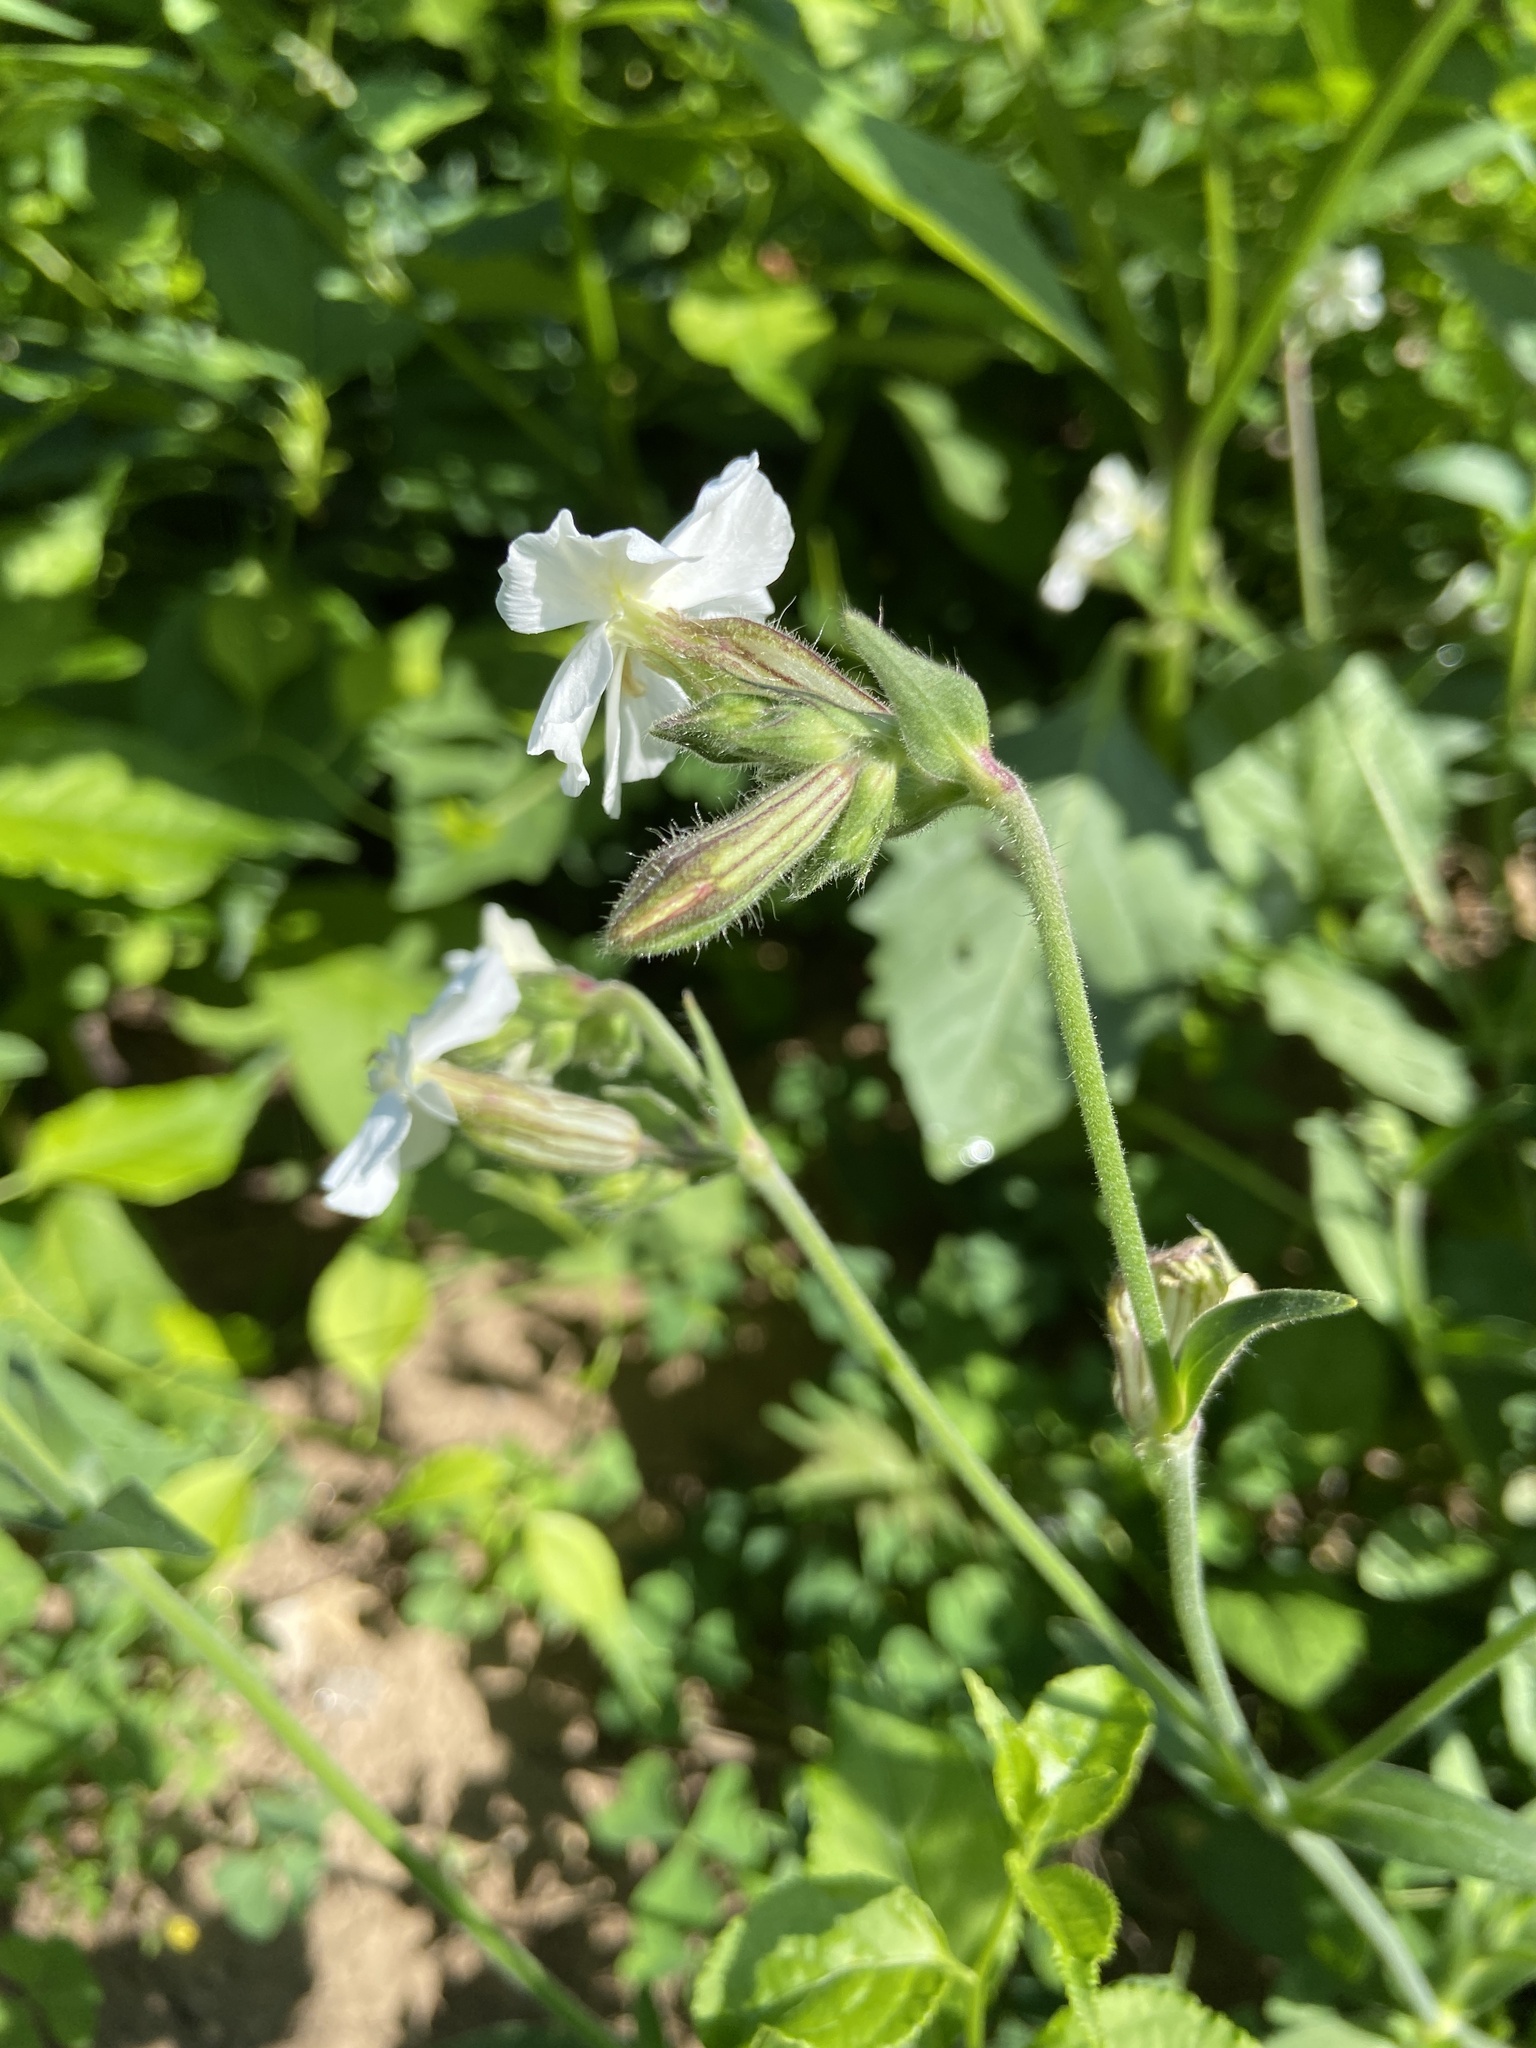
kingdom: Plantae
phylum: Tracheophyta
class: Magnoliopsida
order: Caryophyllales
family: Caryophyllaceae
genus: Silene
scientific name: Silene latifolia
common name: White campion
